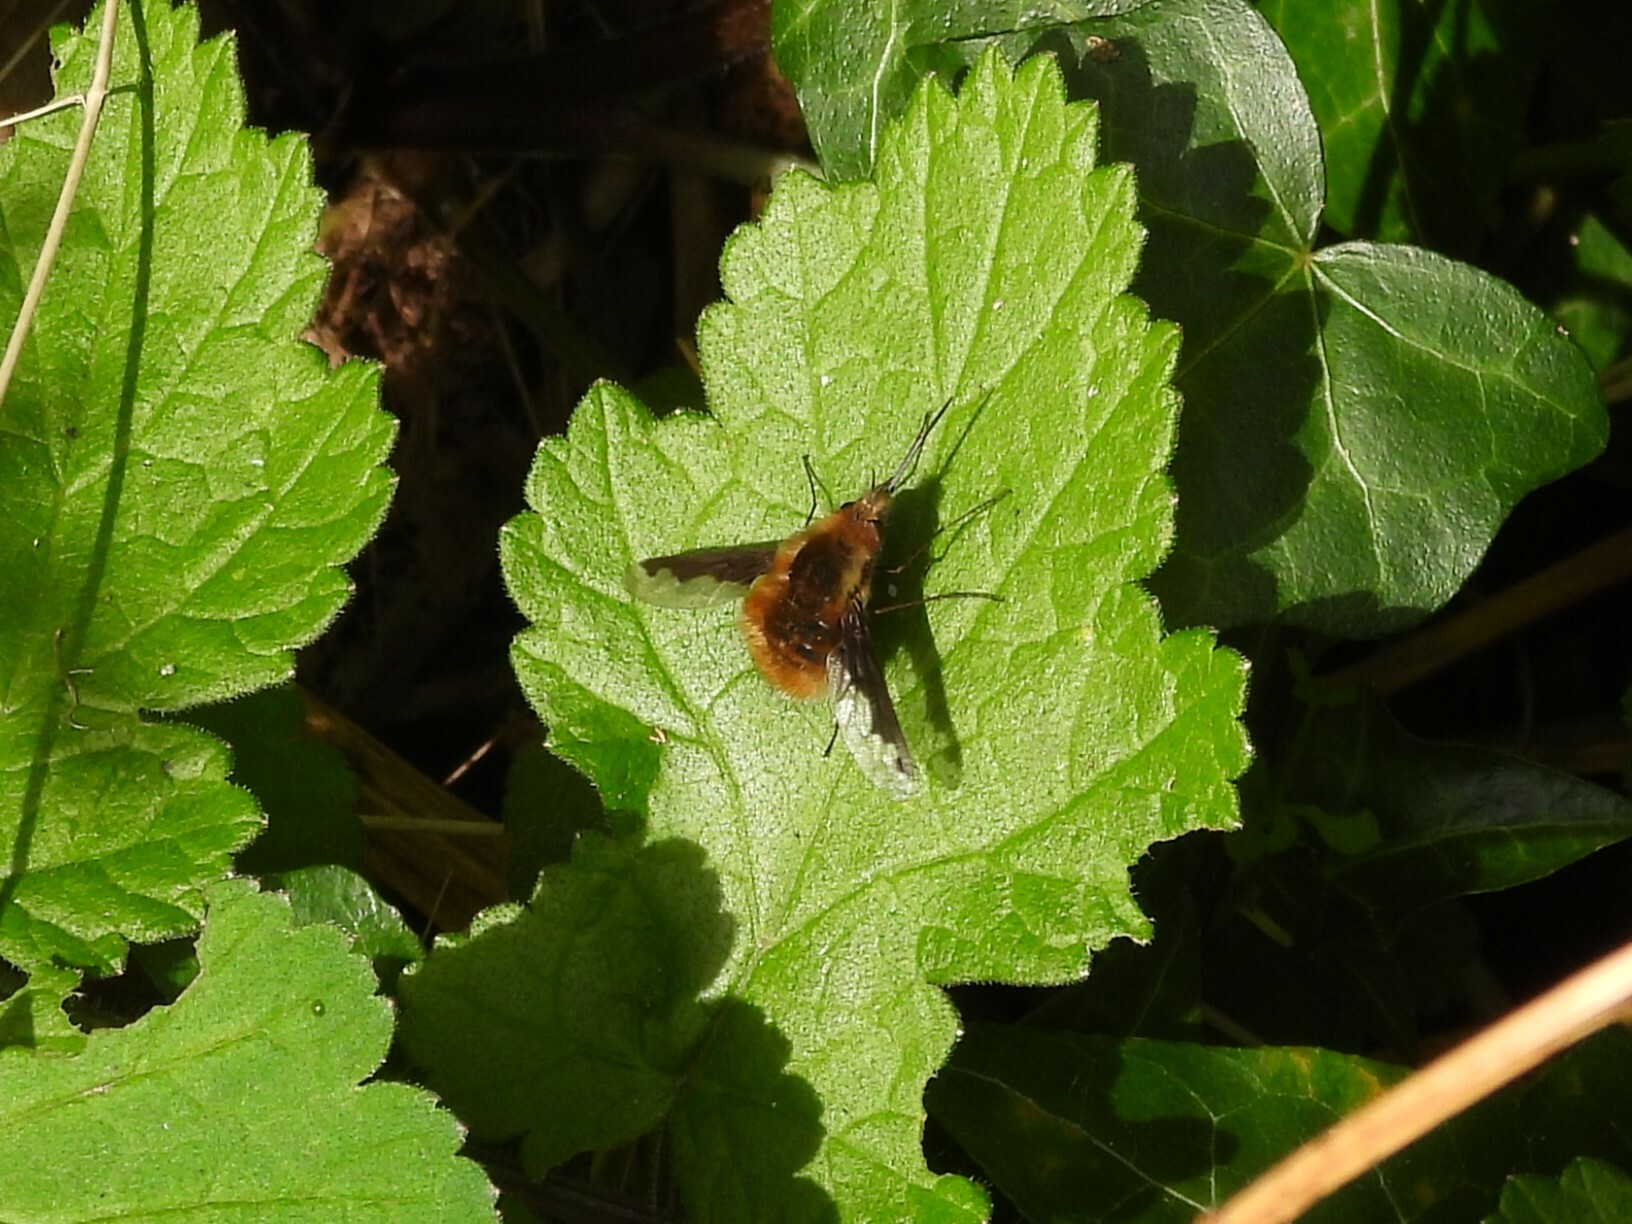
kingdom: Animalia
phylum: Arthropoda
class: Insecta
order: Diptera
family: Bombyliidae
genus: Bombylius
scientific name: Bombylius major
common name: Bee fly
